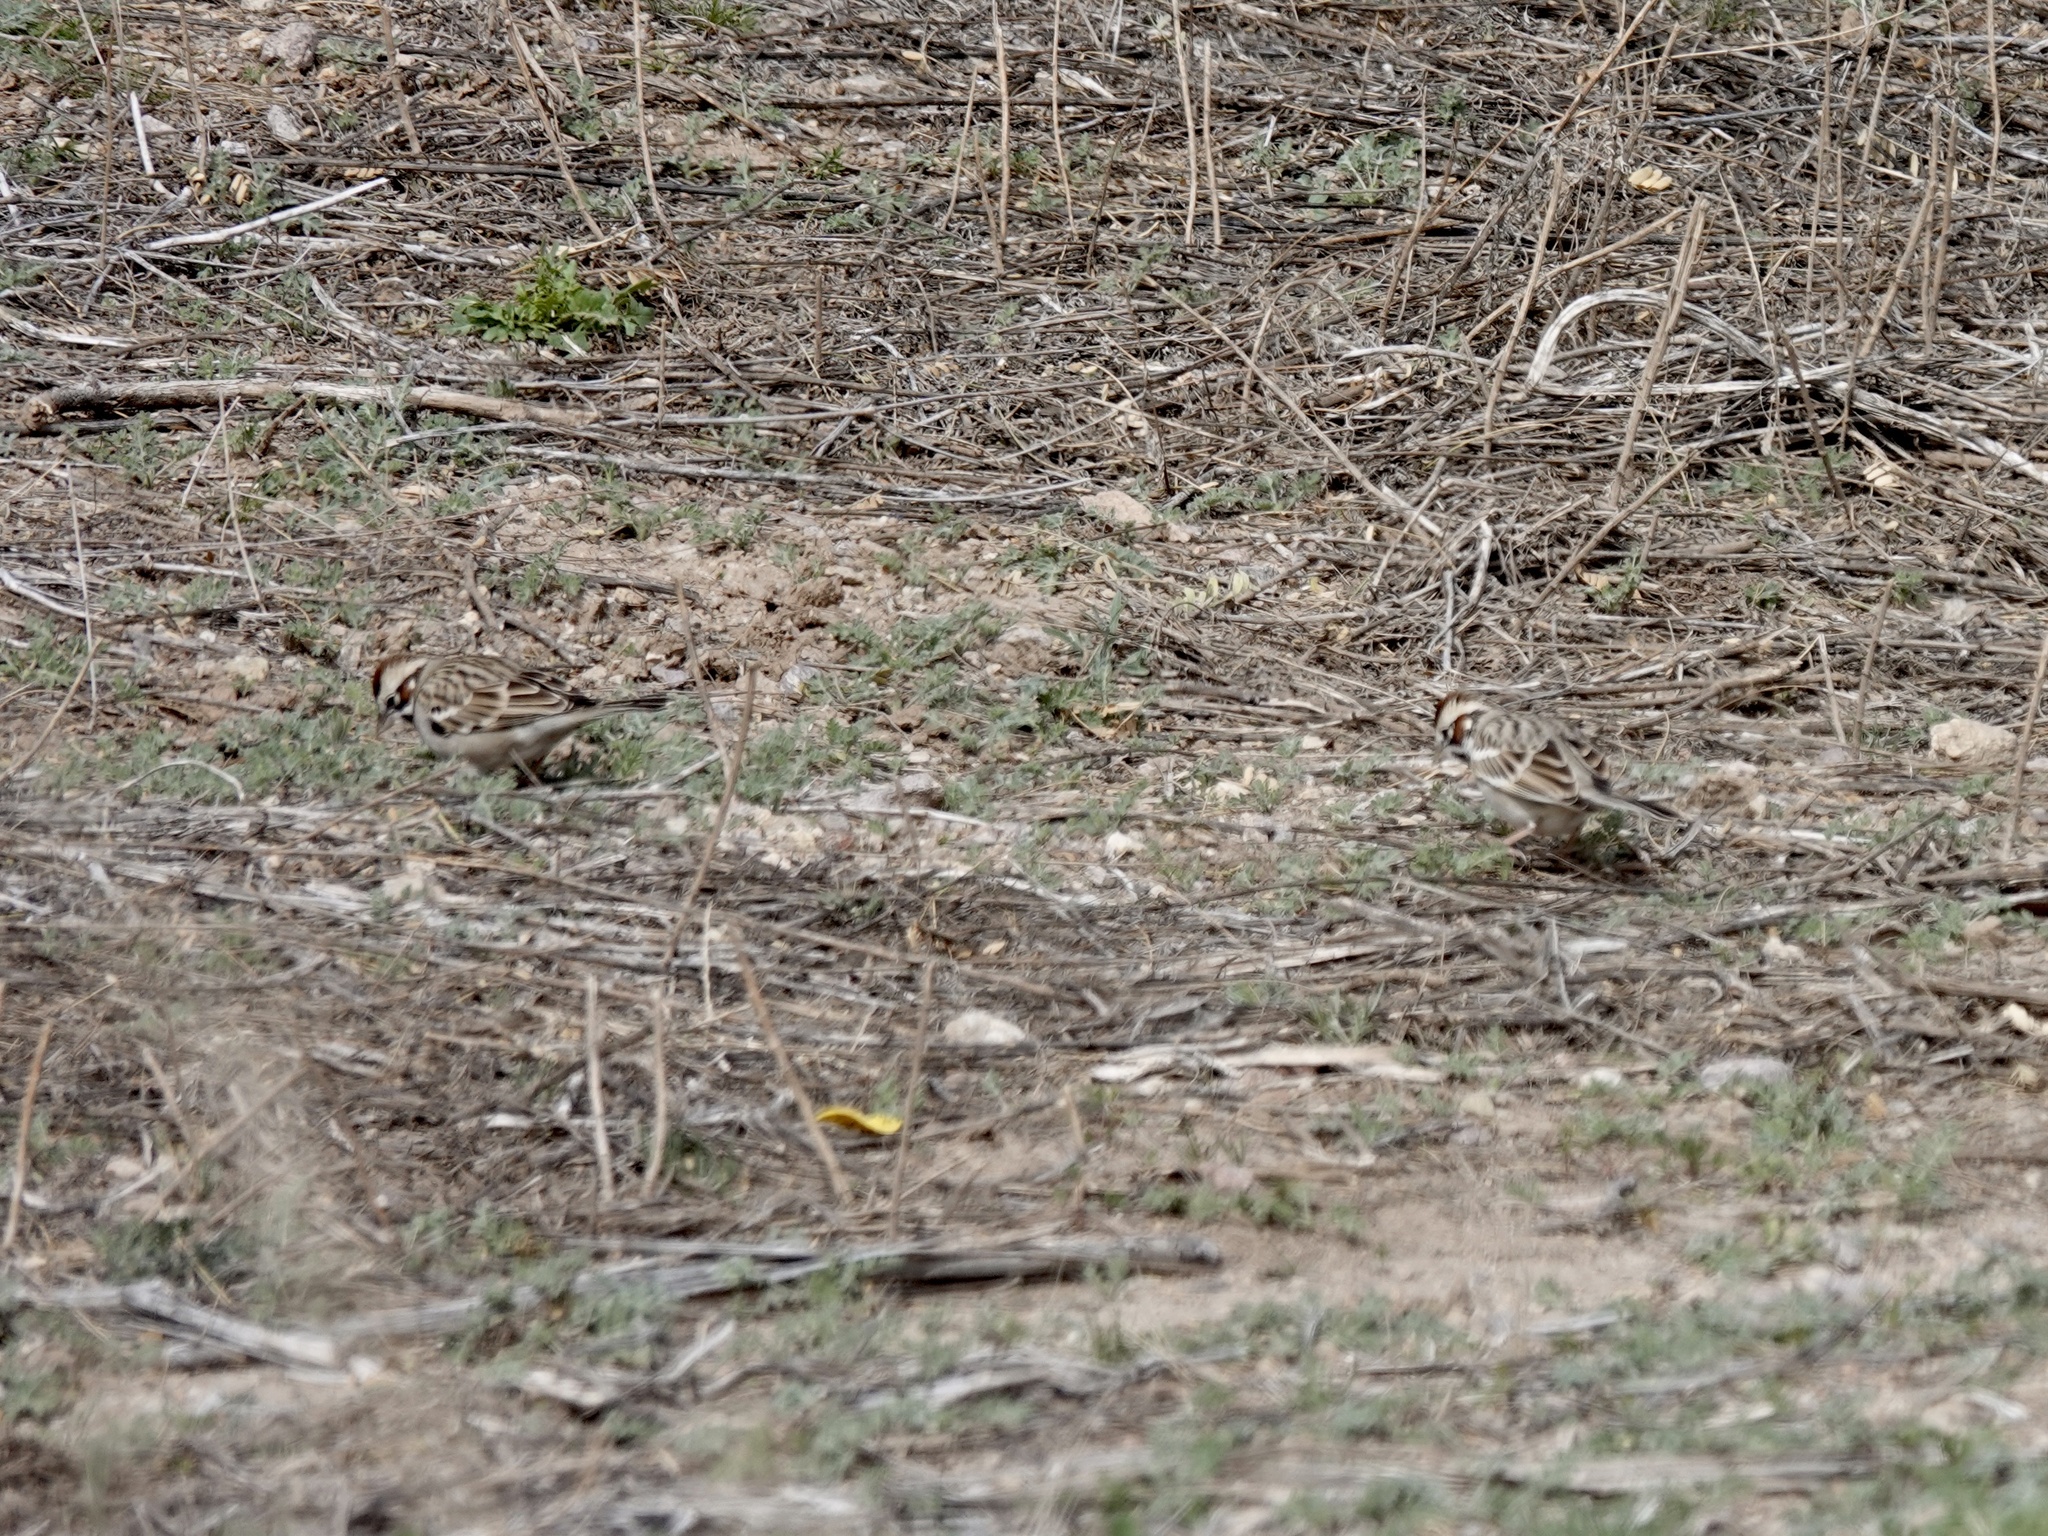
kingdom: Animalia
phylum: Chordata
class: Aves
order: Passeriformes
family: Passerellidae
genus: Chondestes
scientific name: Chondestes grammacus
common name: Lark sparrow
